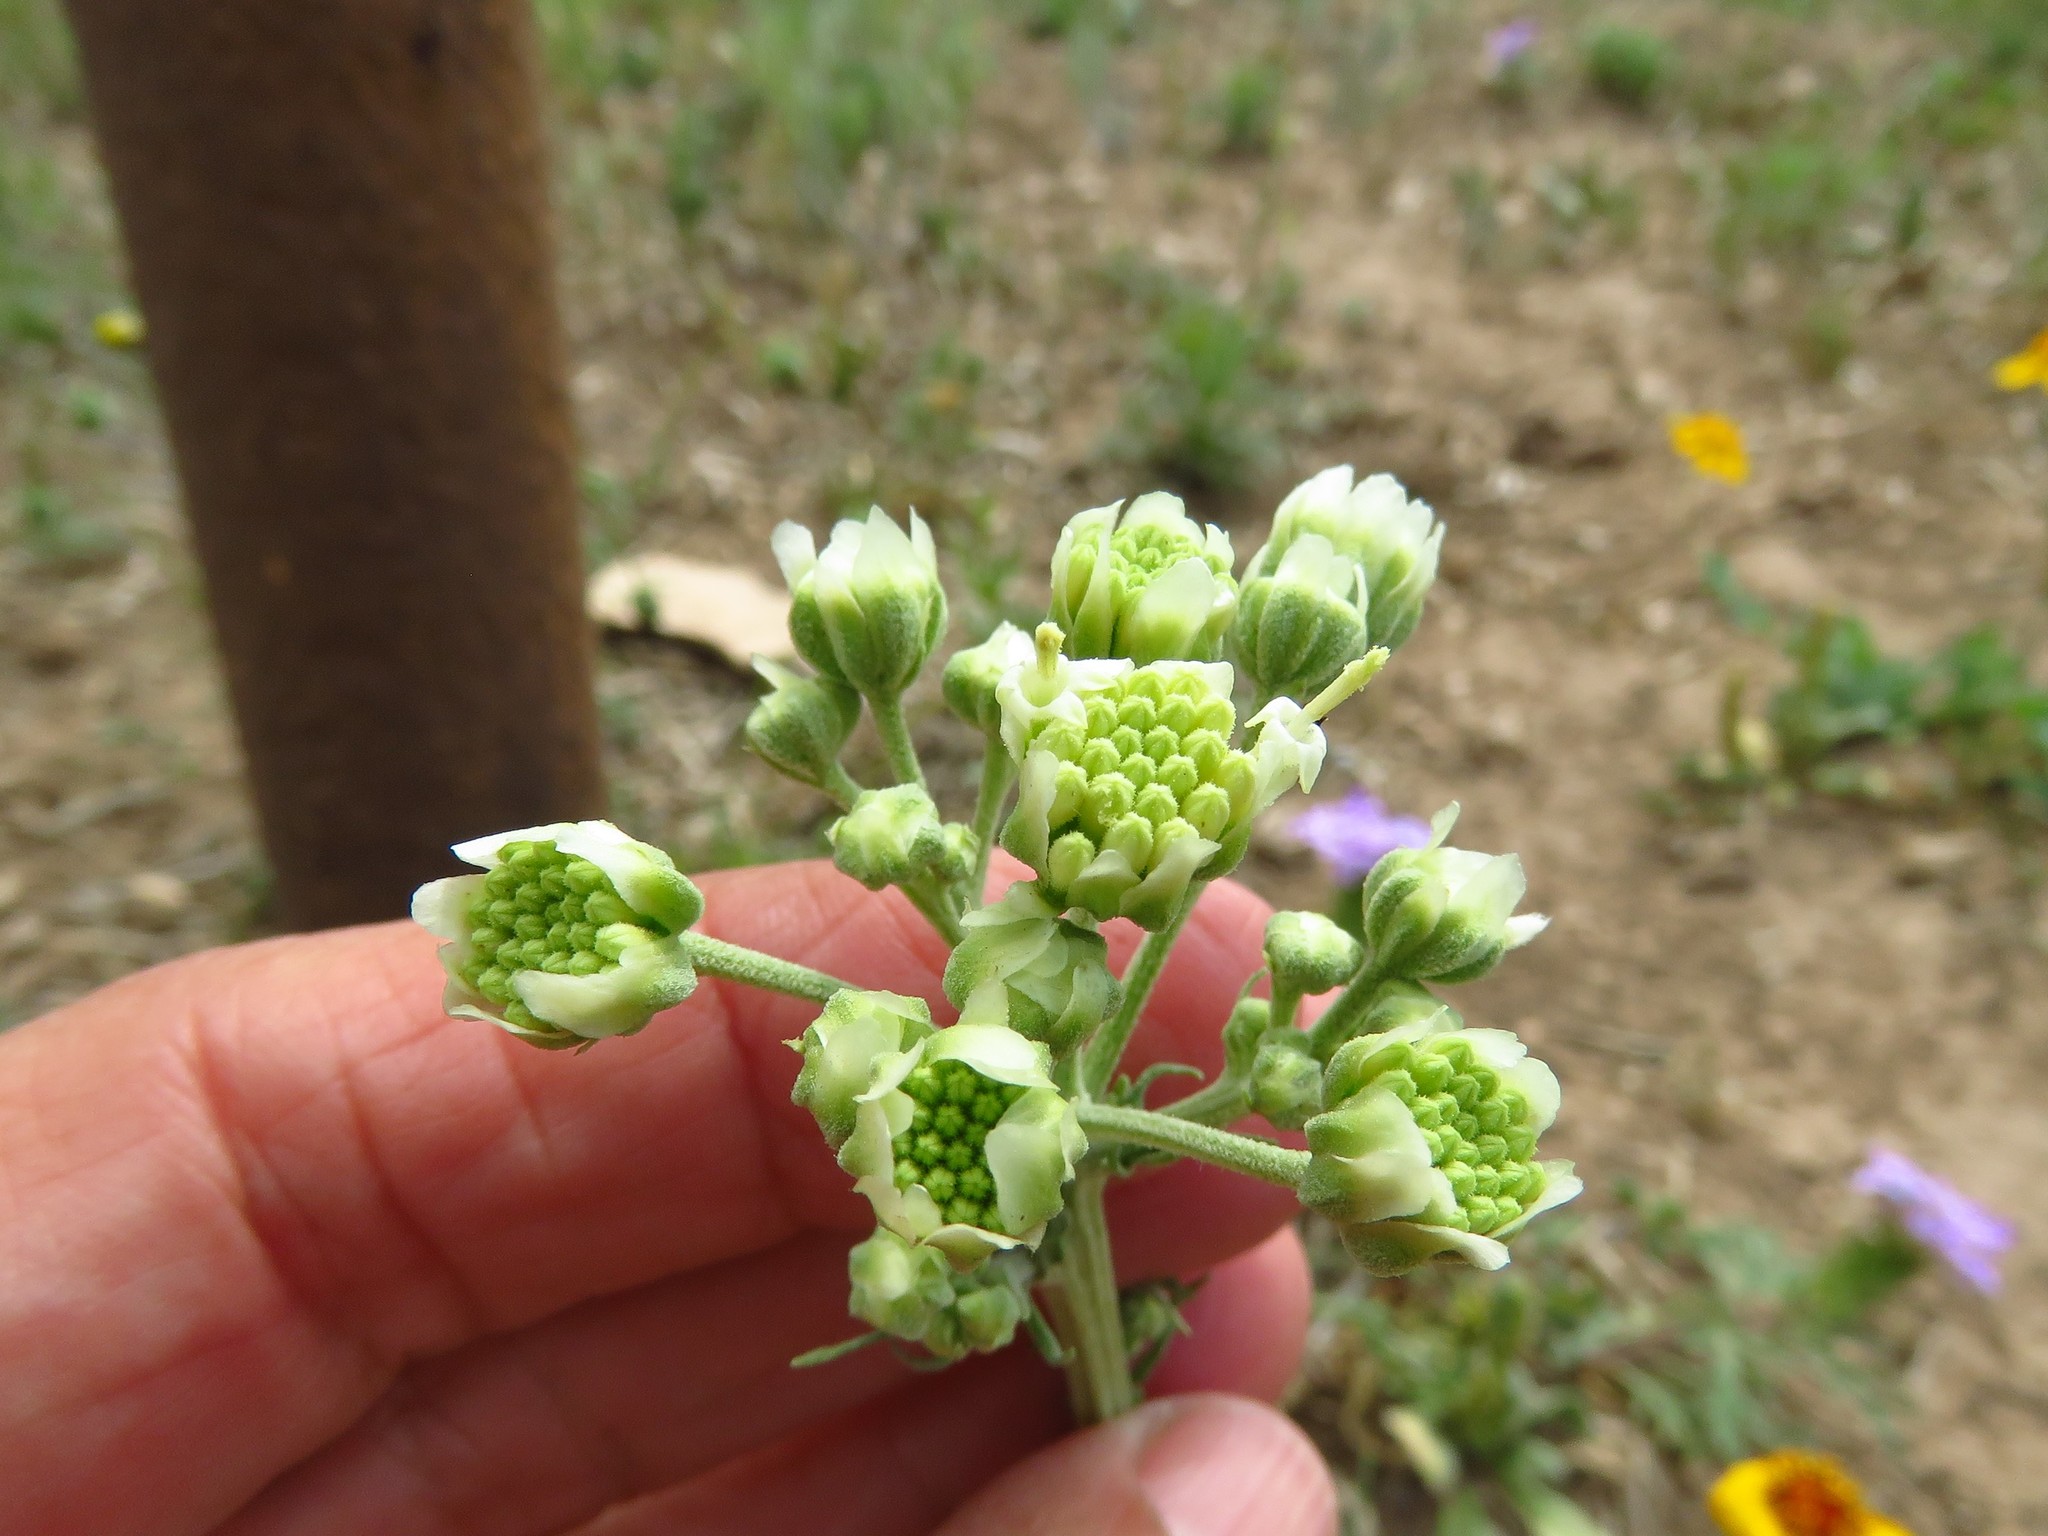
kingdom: Plantae
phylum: Tracheophyta
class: Magnoliopsida
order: Asterales
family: Asteraceae
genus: Hymenopappus
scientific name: Hymenopappus scabiosaeus
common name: Carolina woollywhite
